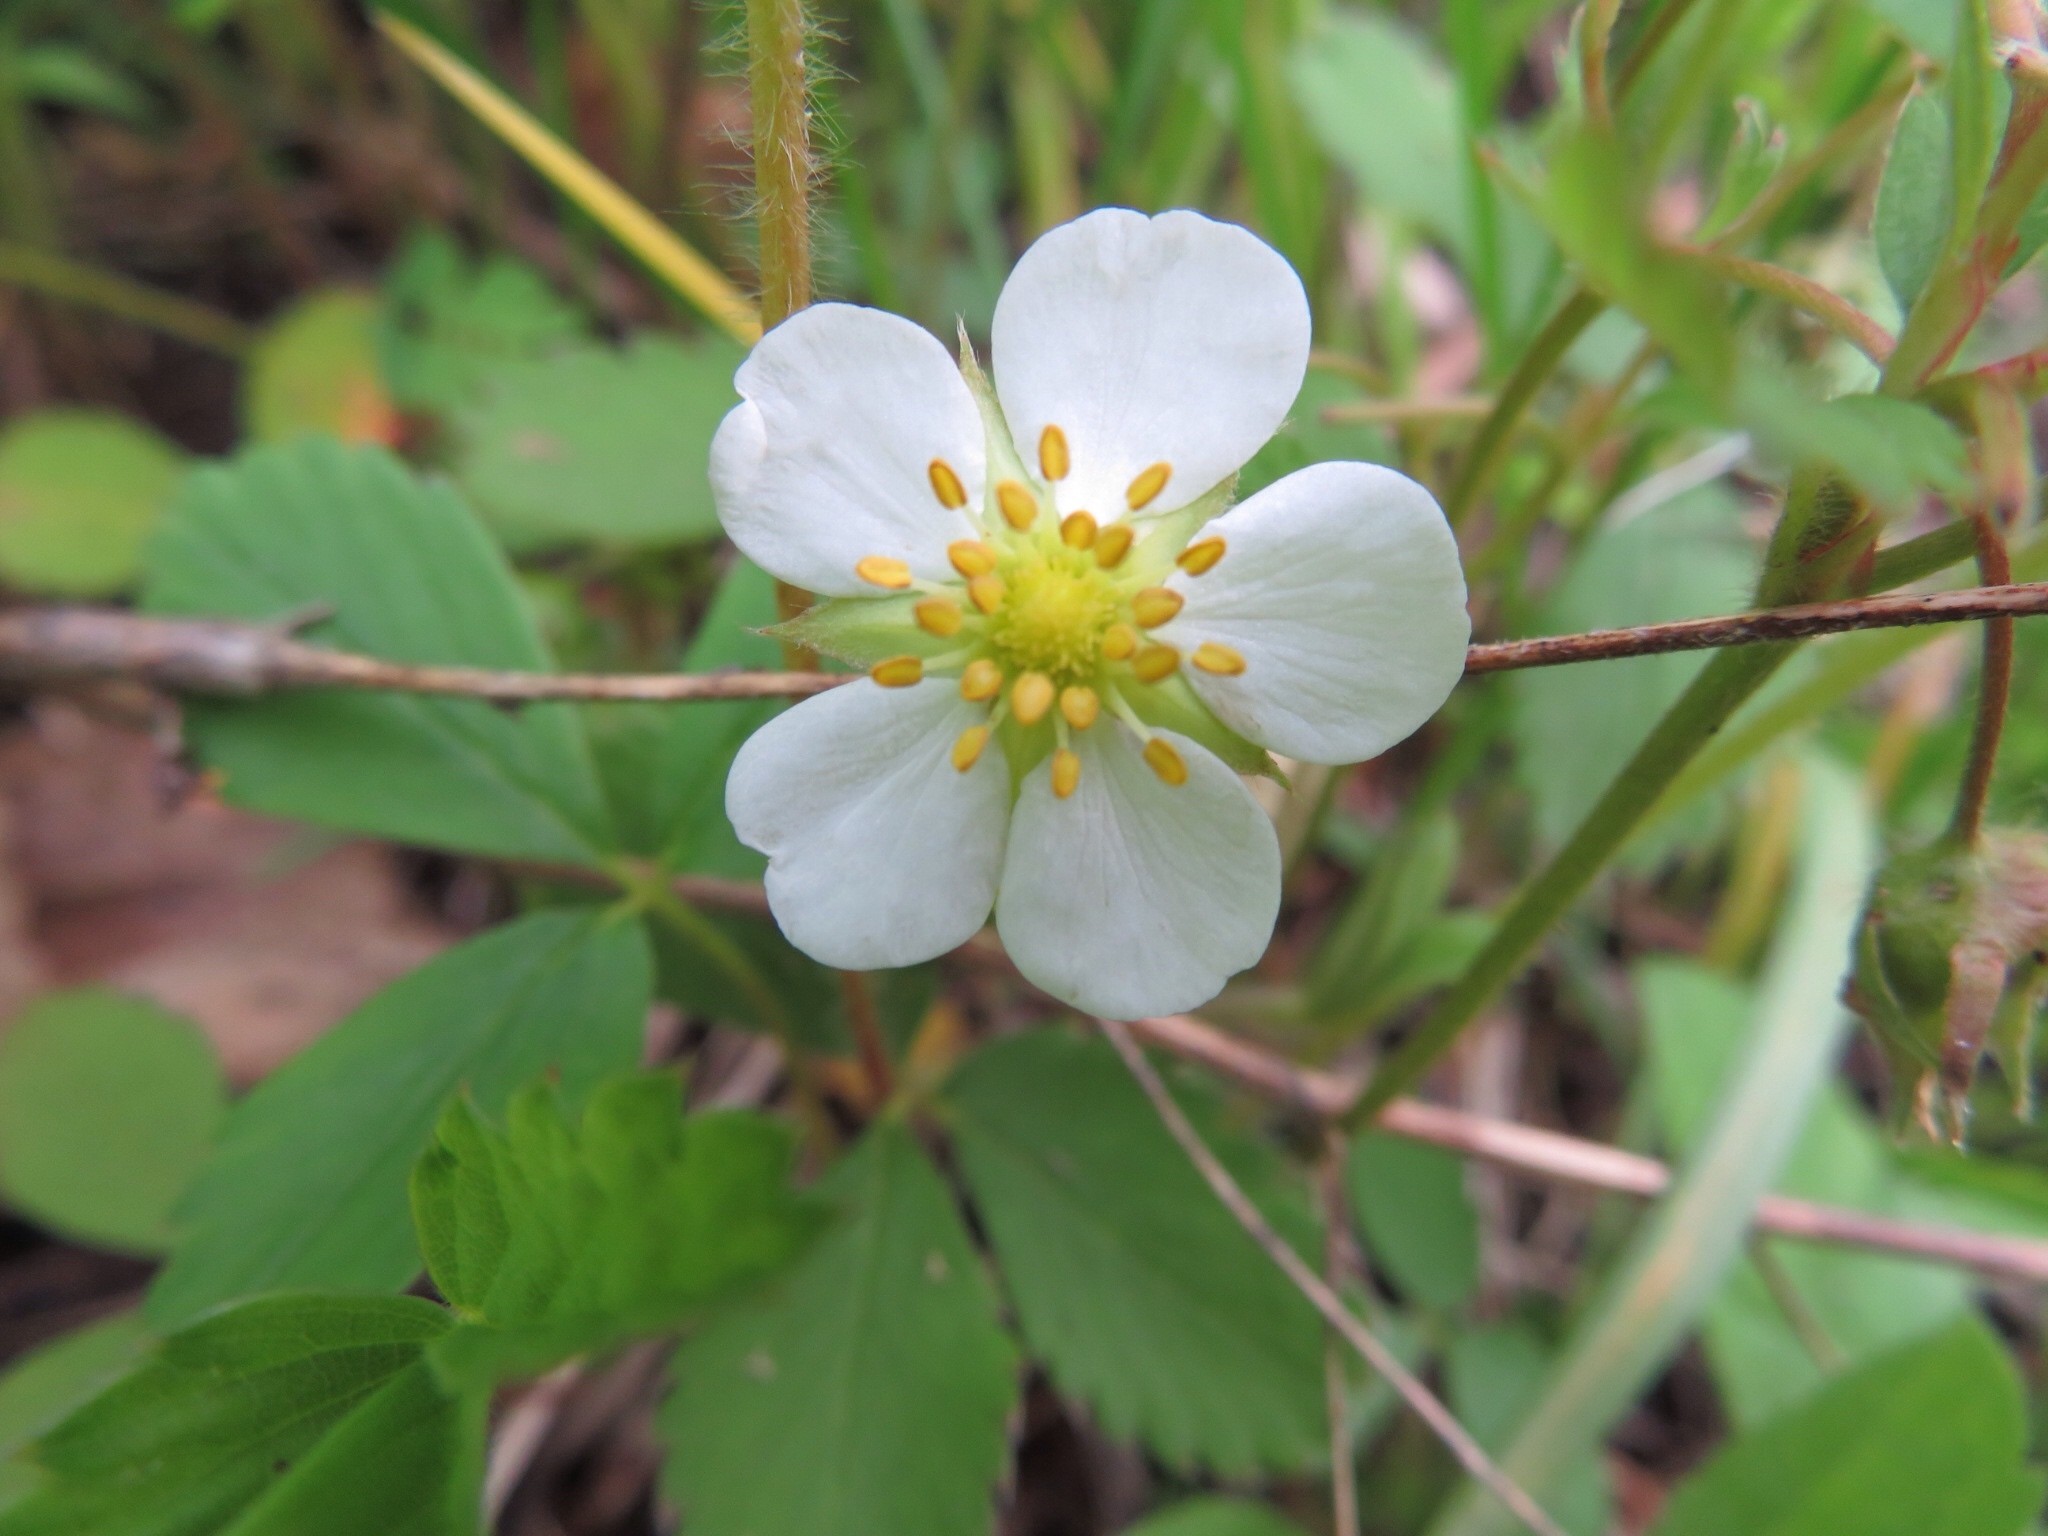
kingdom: Plantae
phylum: Tracheophyta
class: Magnoliopsida
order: Rosales
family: Rosaceae
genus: Fragaria
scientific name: Fragaria virginiana
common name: Thickleaved wild strawberry
